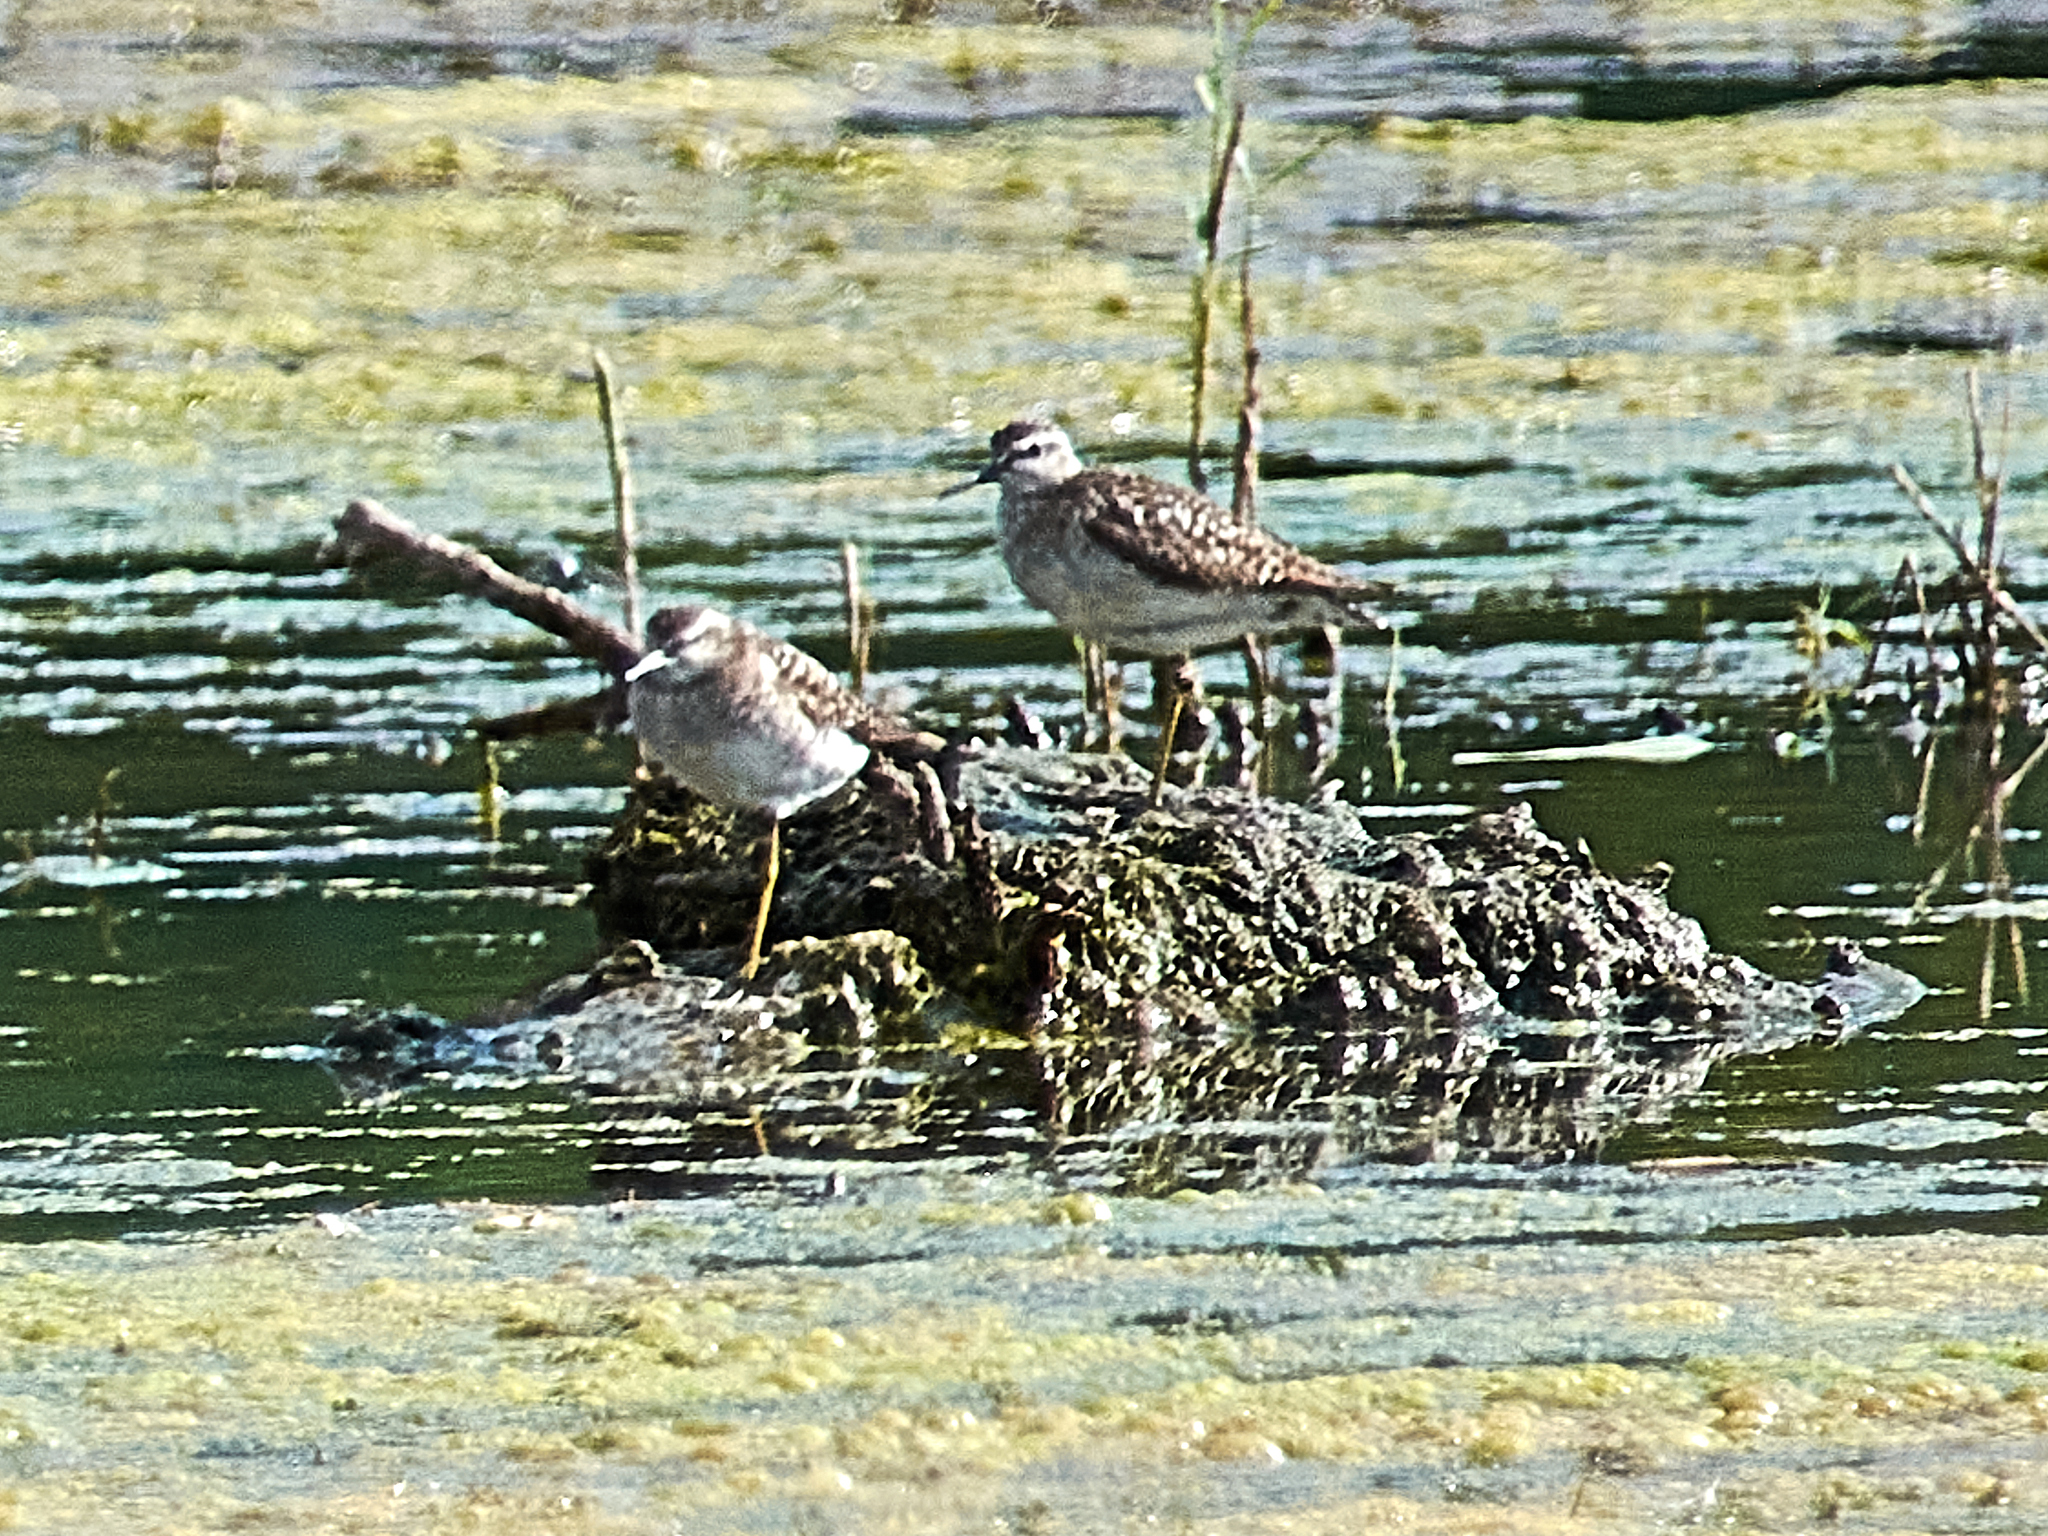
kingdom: Animalia
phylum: Chordata
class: Aves
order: Charadriiformes
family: Scolopacidae
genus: Tringa
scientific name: Tringa glareola
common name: Wood sandpiper
